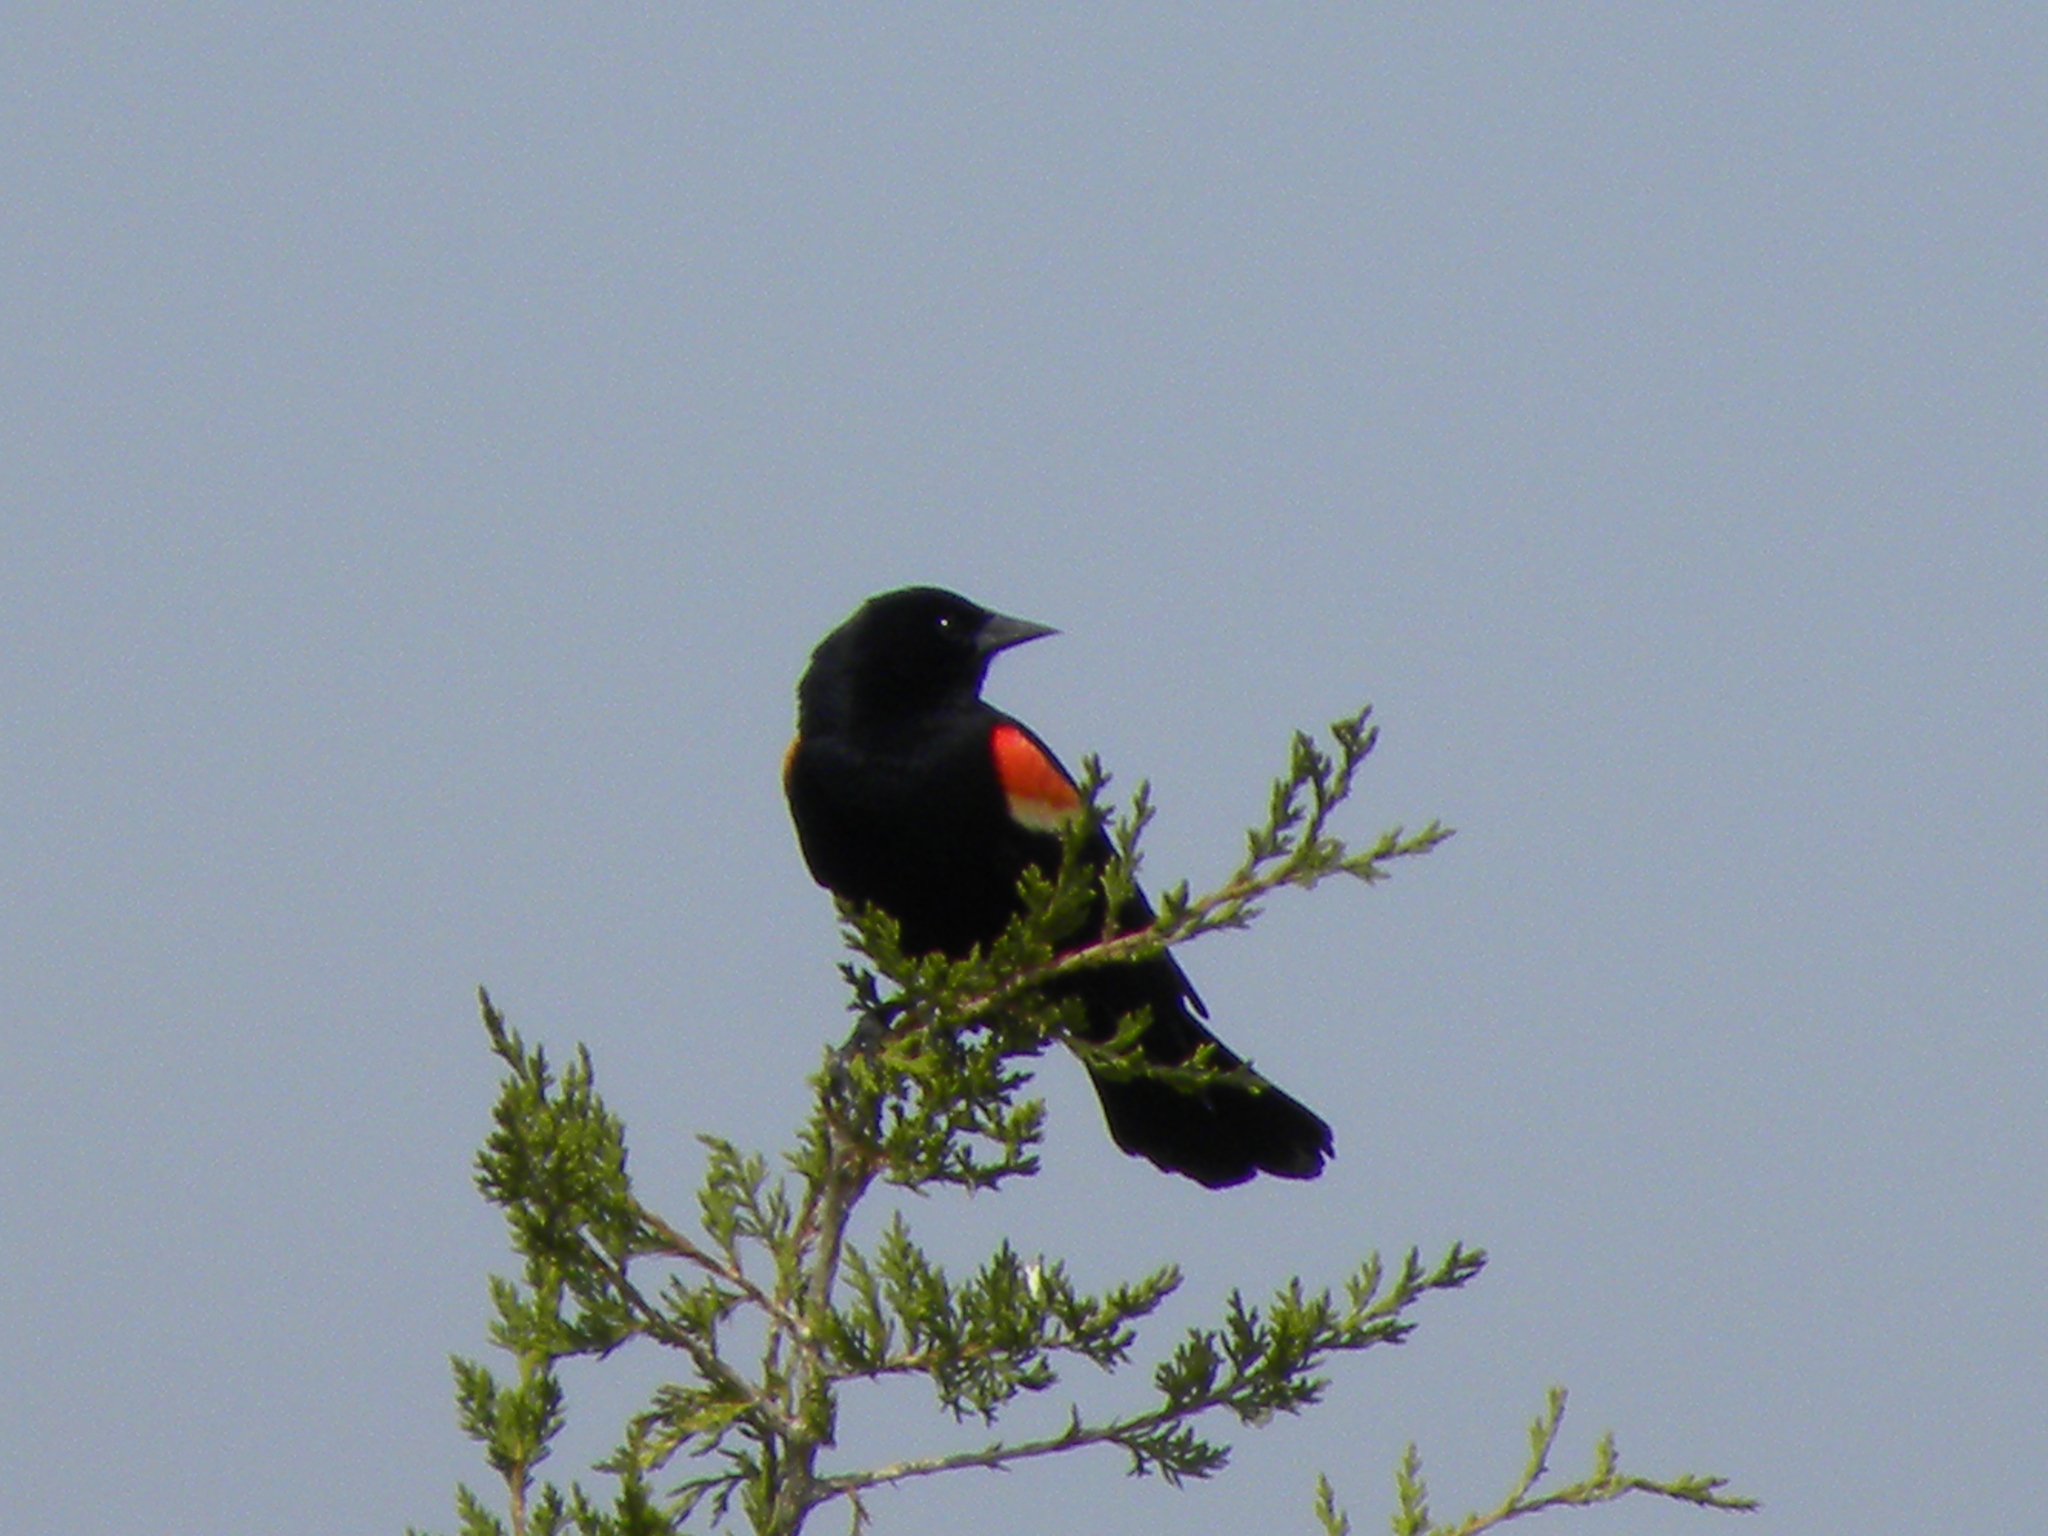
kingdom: Animalia
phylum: Chordata
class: Aves
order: Passeriformes
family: Icteridae
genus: Agelaius
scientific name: Agelaius phoeniceus
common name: Red-winged blackbird
